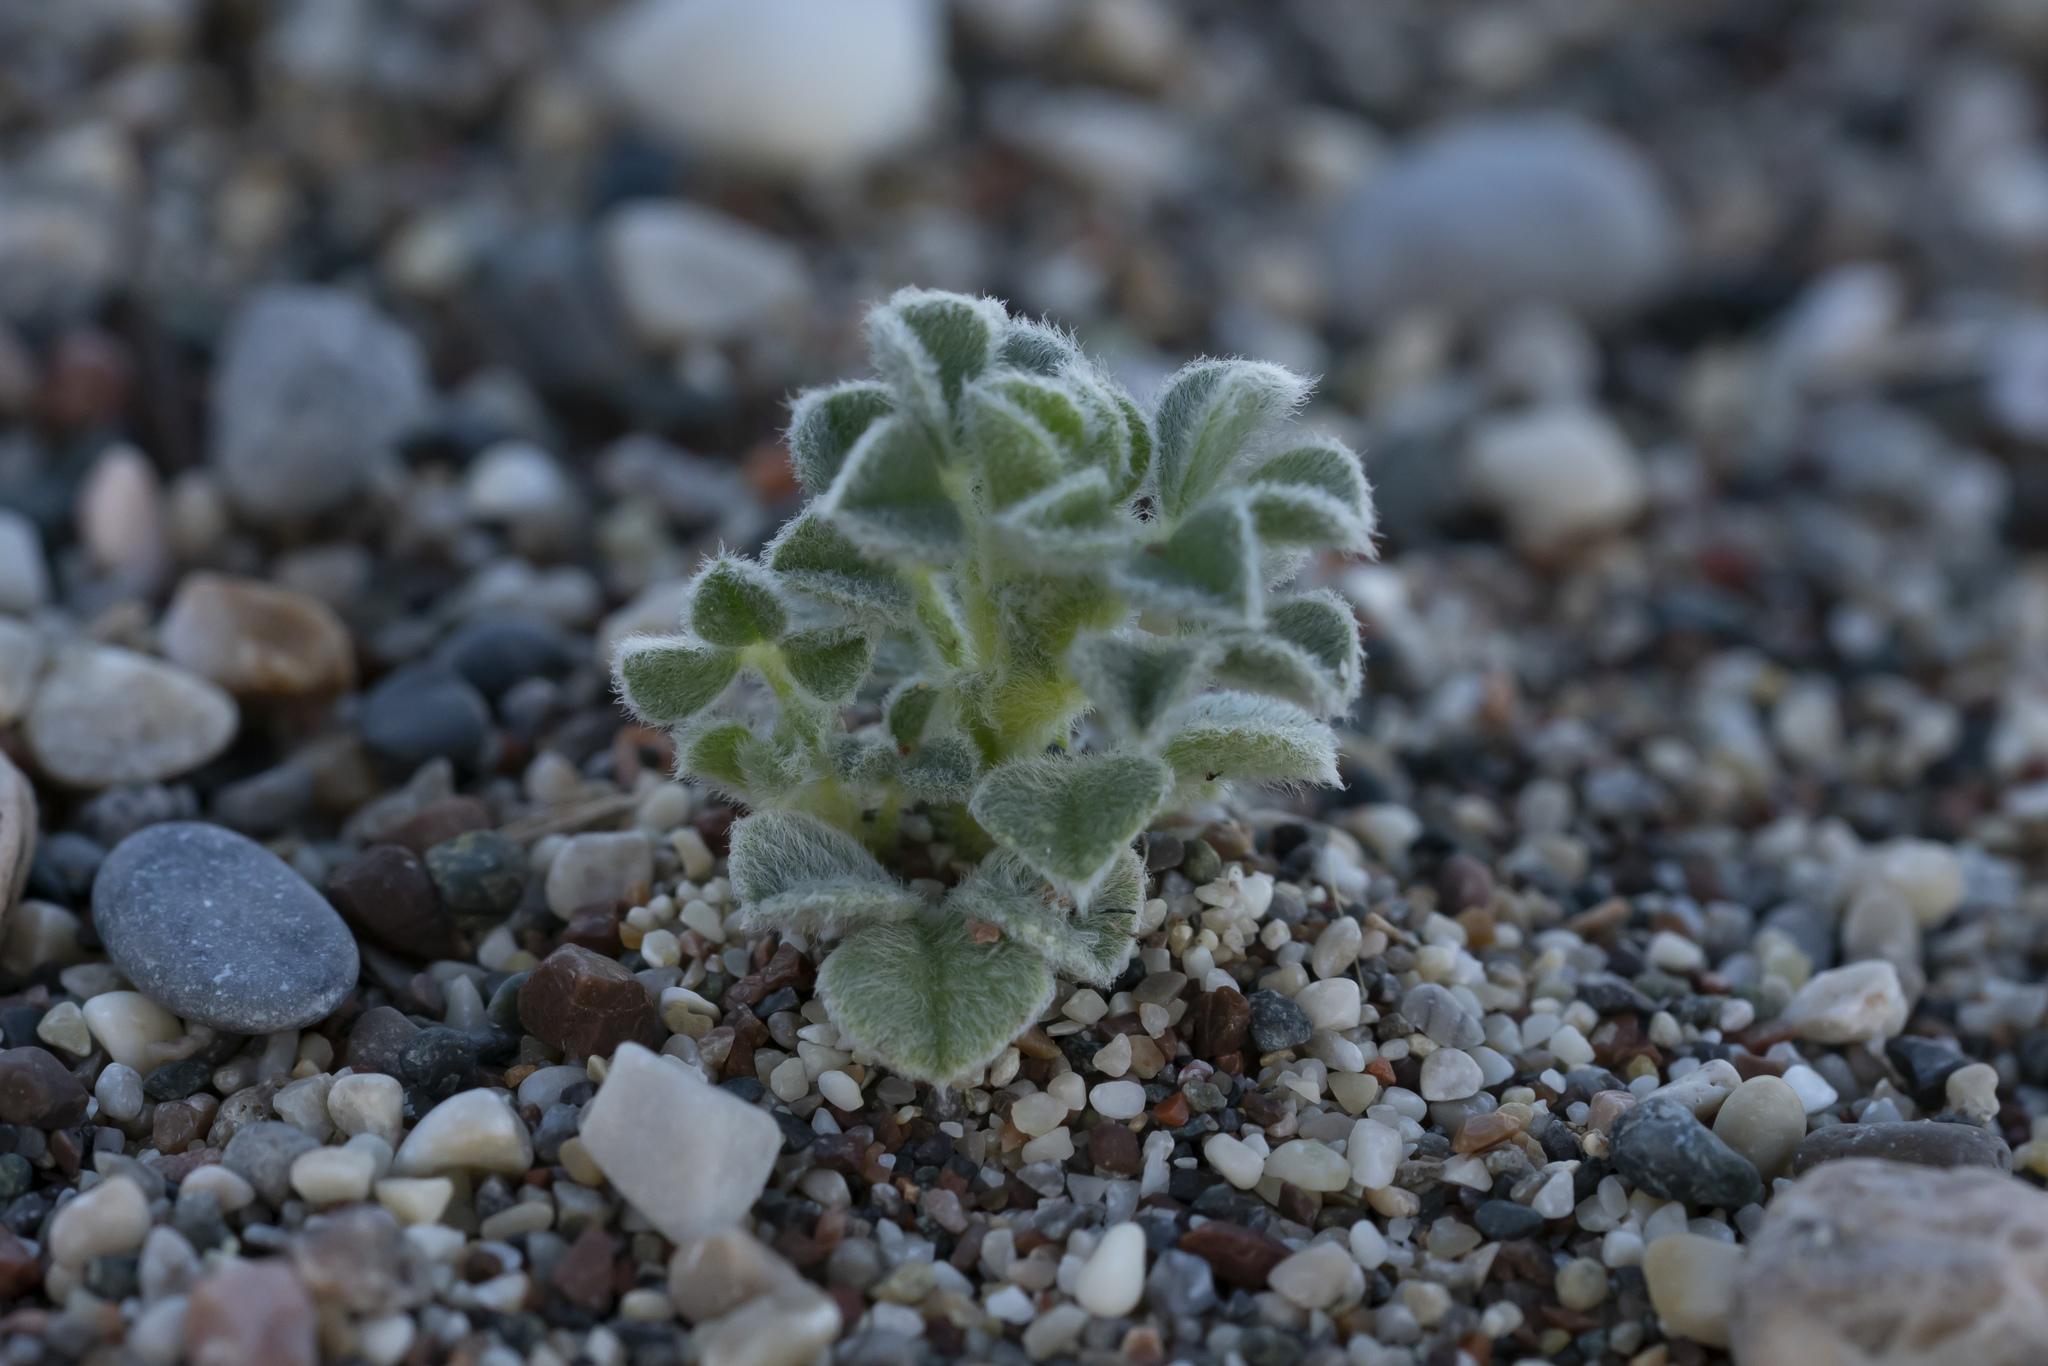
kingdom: Plantae
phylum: Tracheophyta
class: Magnoliopsida
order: Fabales
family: Fabaceae
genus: Medicago
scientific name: Medicago marina
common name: Sea medick
